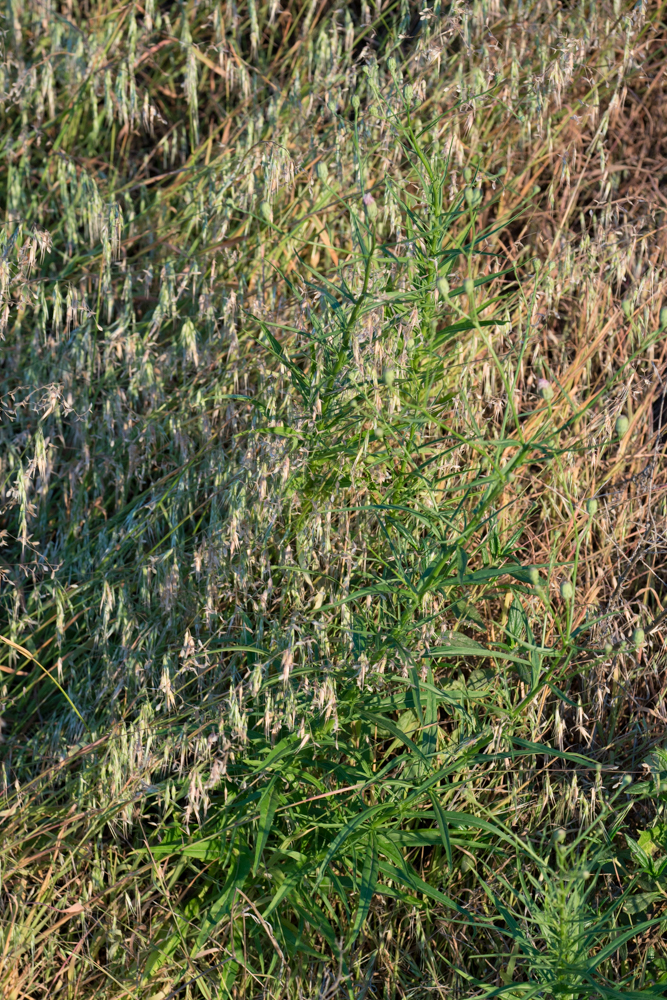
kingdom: Plantae
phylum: Tracheophyta
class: Magnoliopsida
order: Asterales
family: Asteraceae
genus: Malacothrix
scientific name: Malacothrix saxatilis
